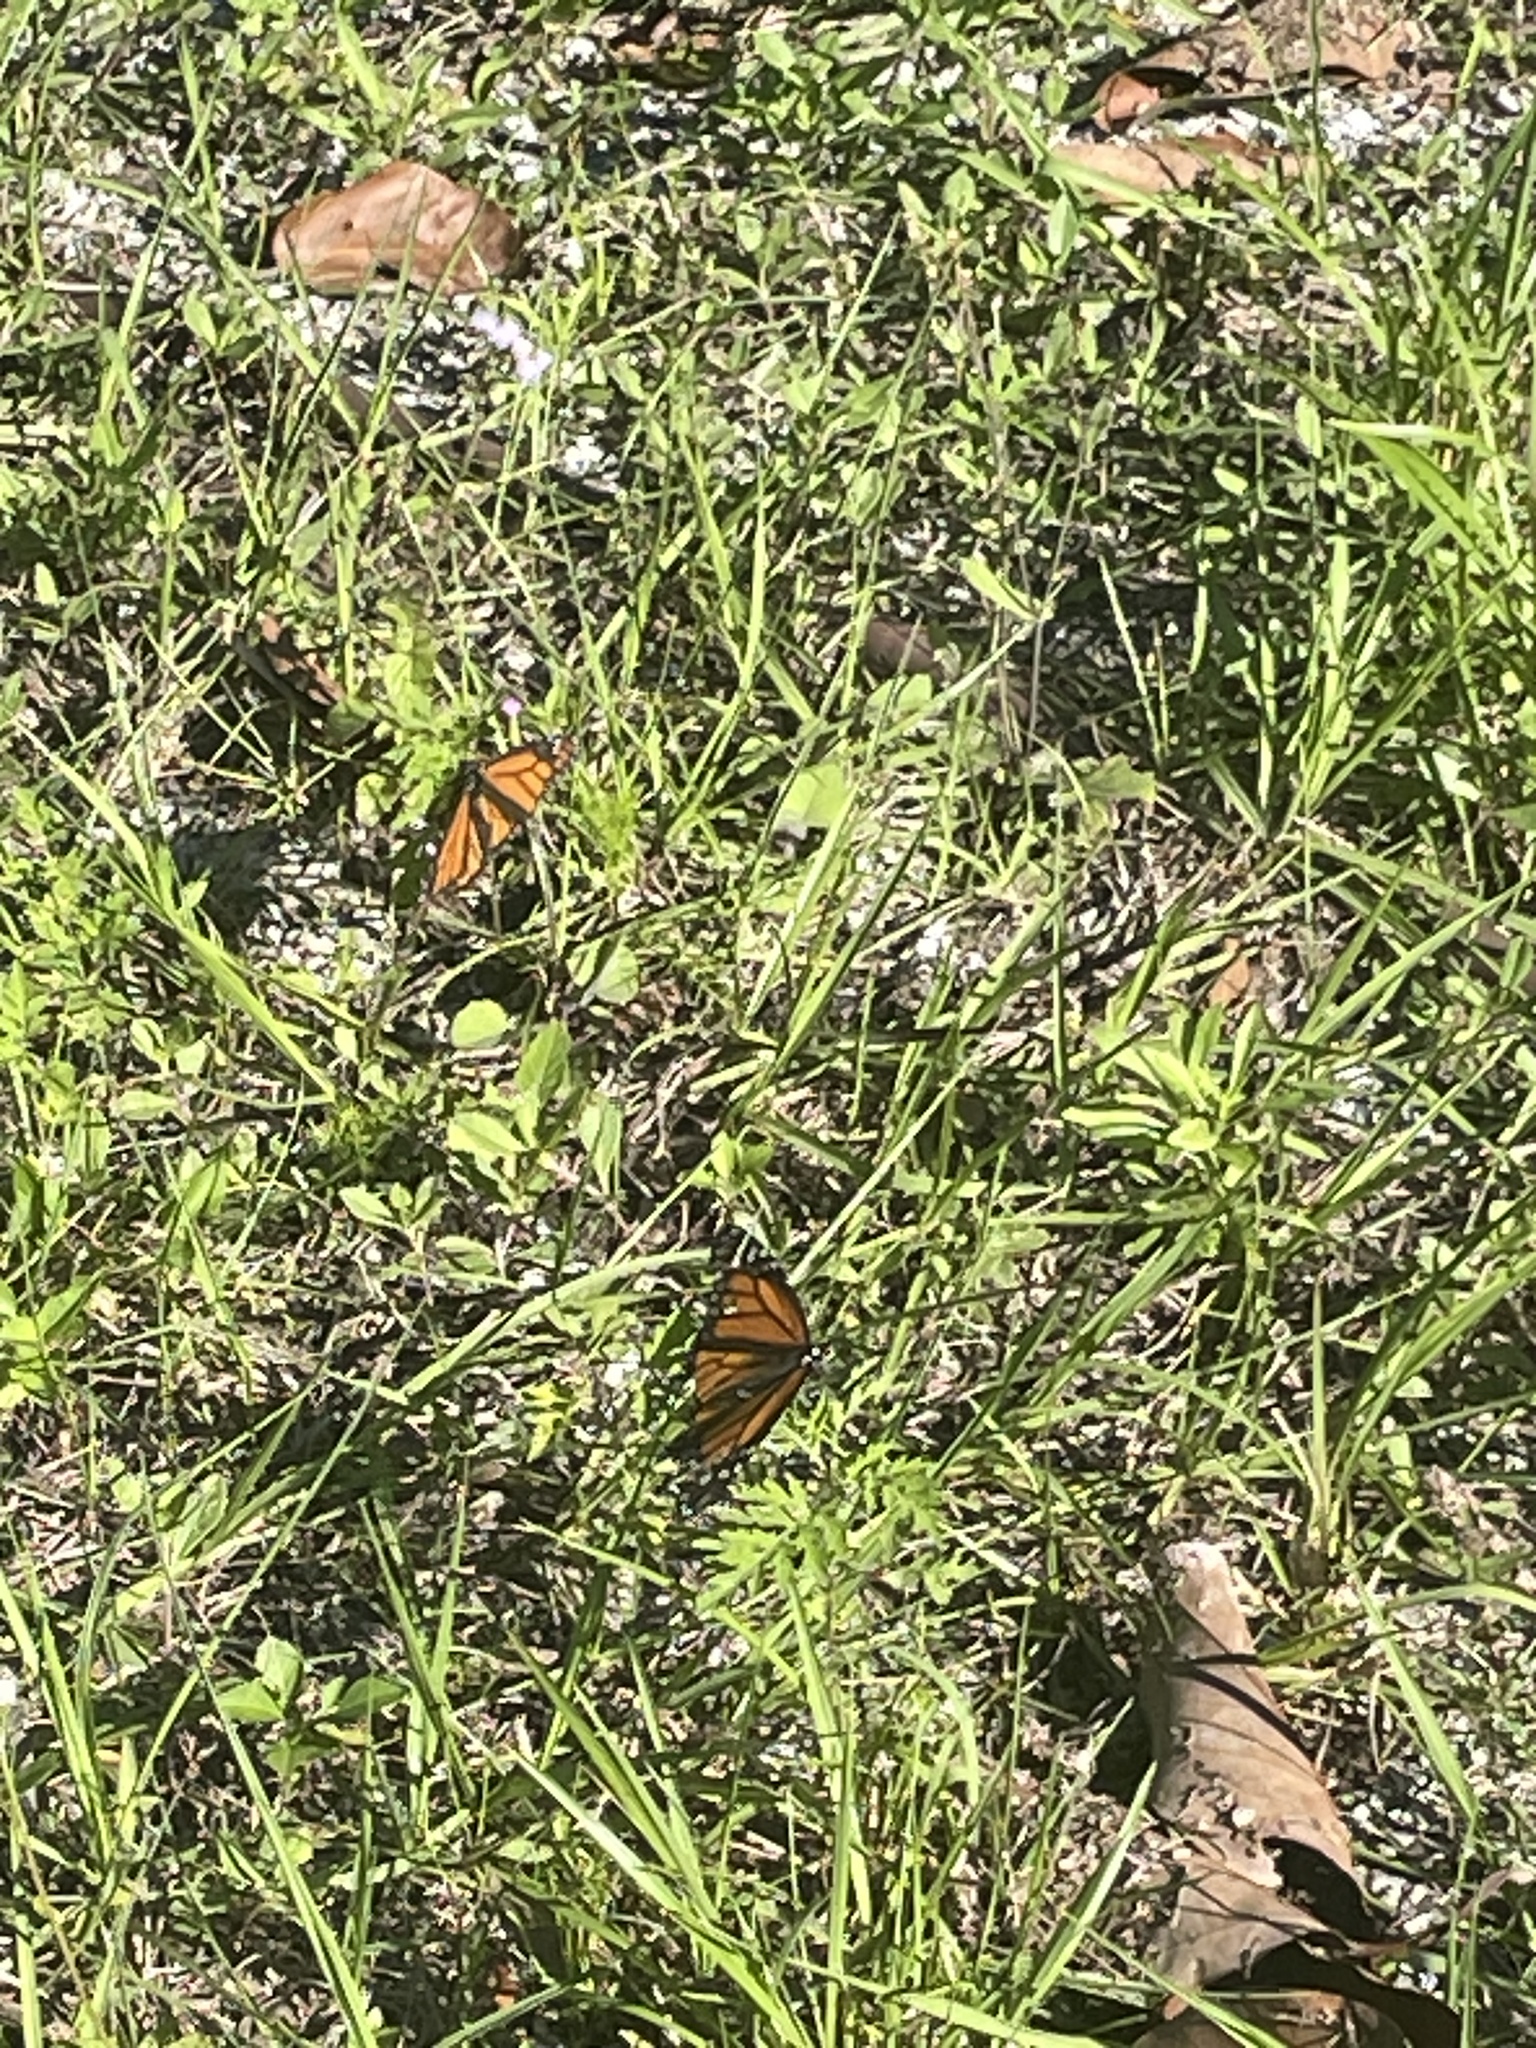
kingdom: Animalia
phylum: Arthropoda
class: Insecta
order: Lepidoptera
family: Nymphalidae
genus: Danaus
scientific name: Danaus plexippus
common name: Monarch
